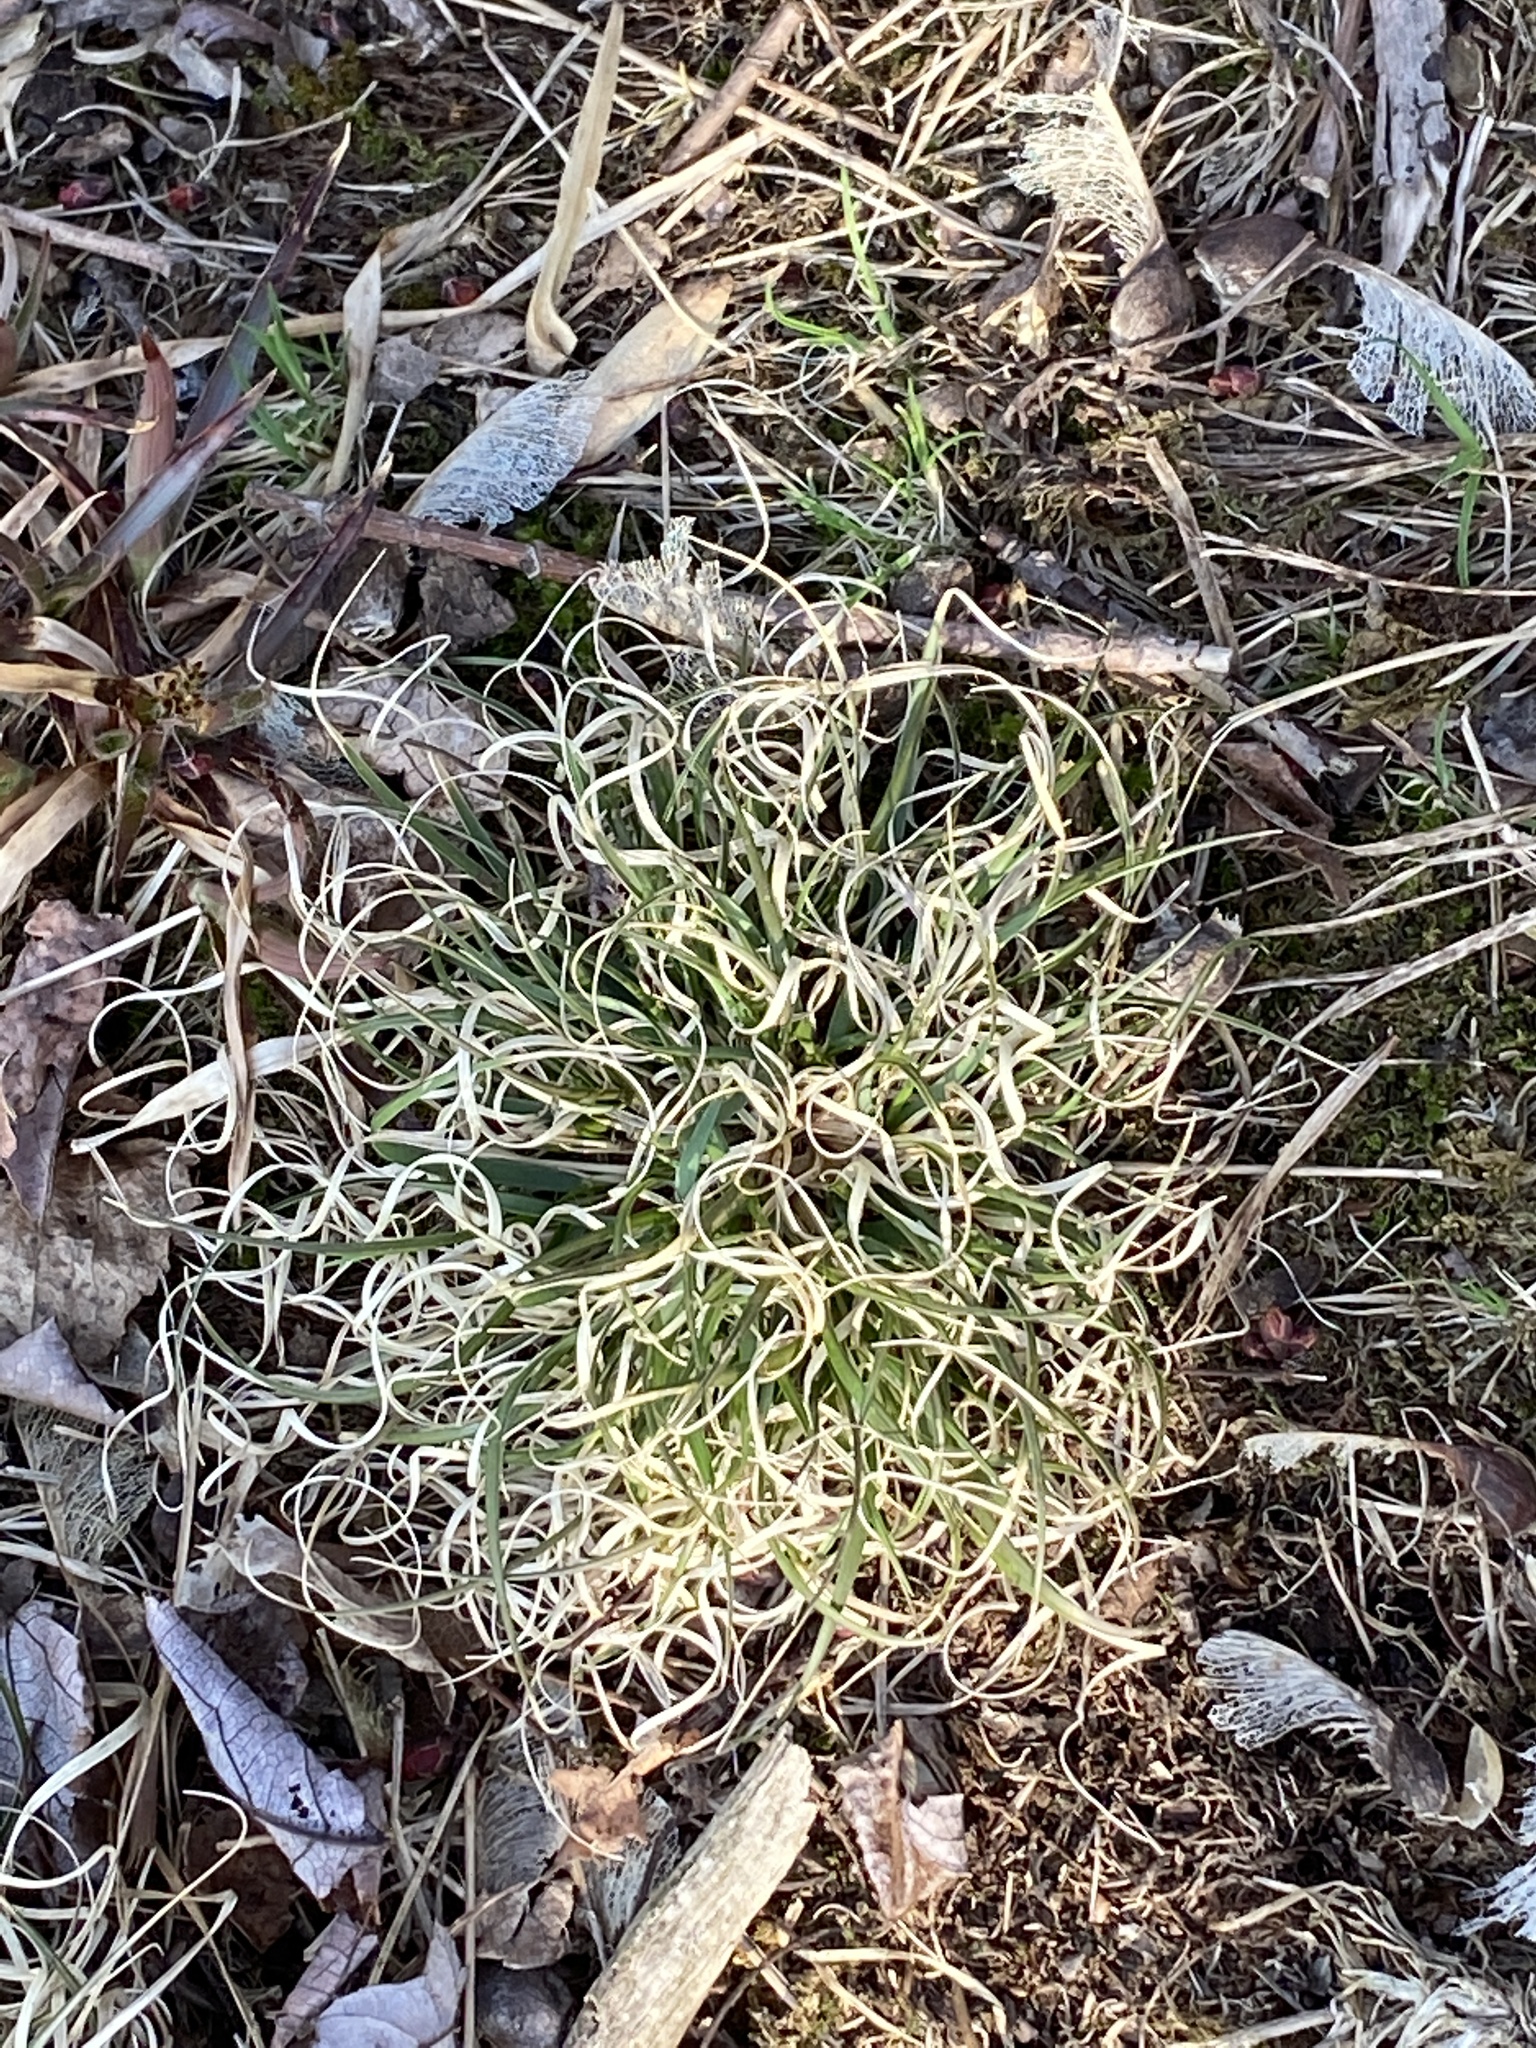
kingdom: Plantae
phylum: Tracheophyta
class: Liliopsida
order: Poales
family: Poaceae
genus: Danthonia
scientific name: Danthonia spicata
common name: Common wild oatgrass
